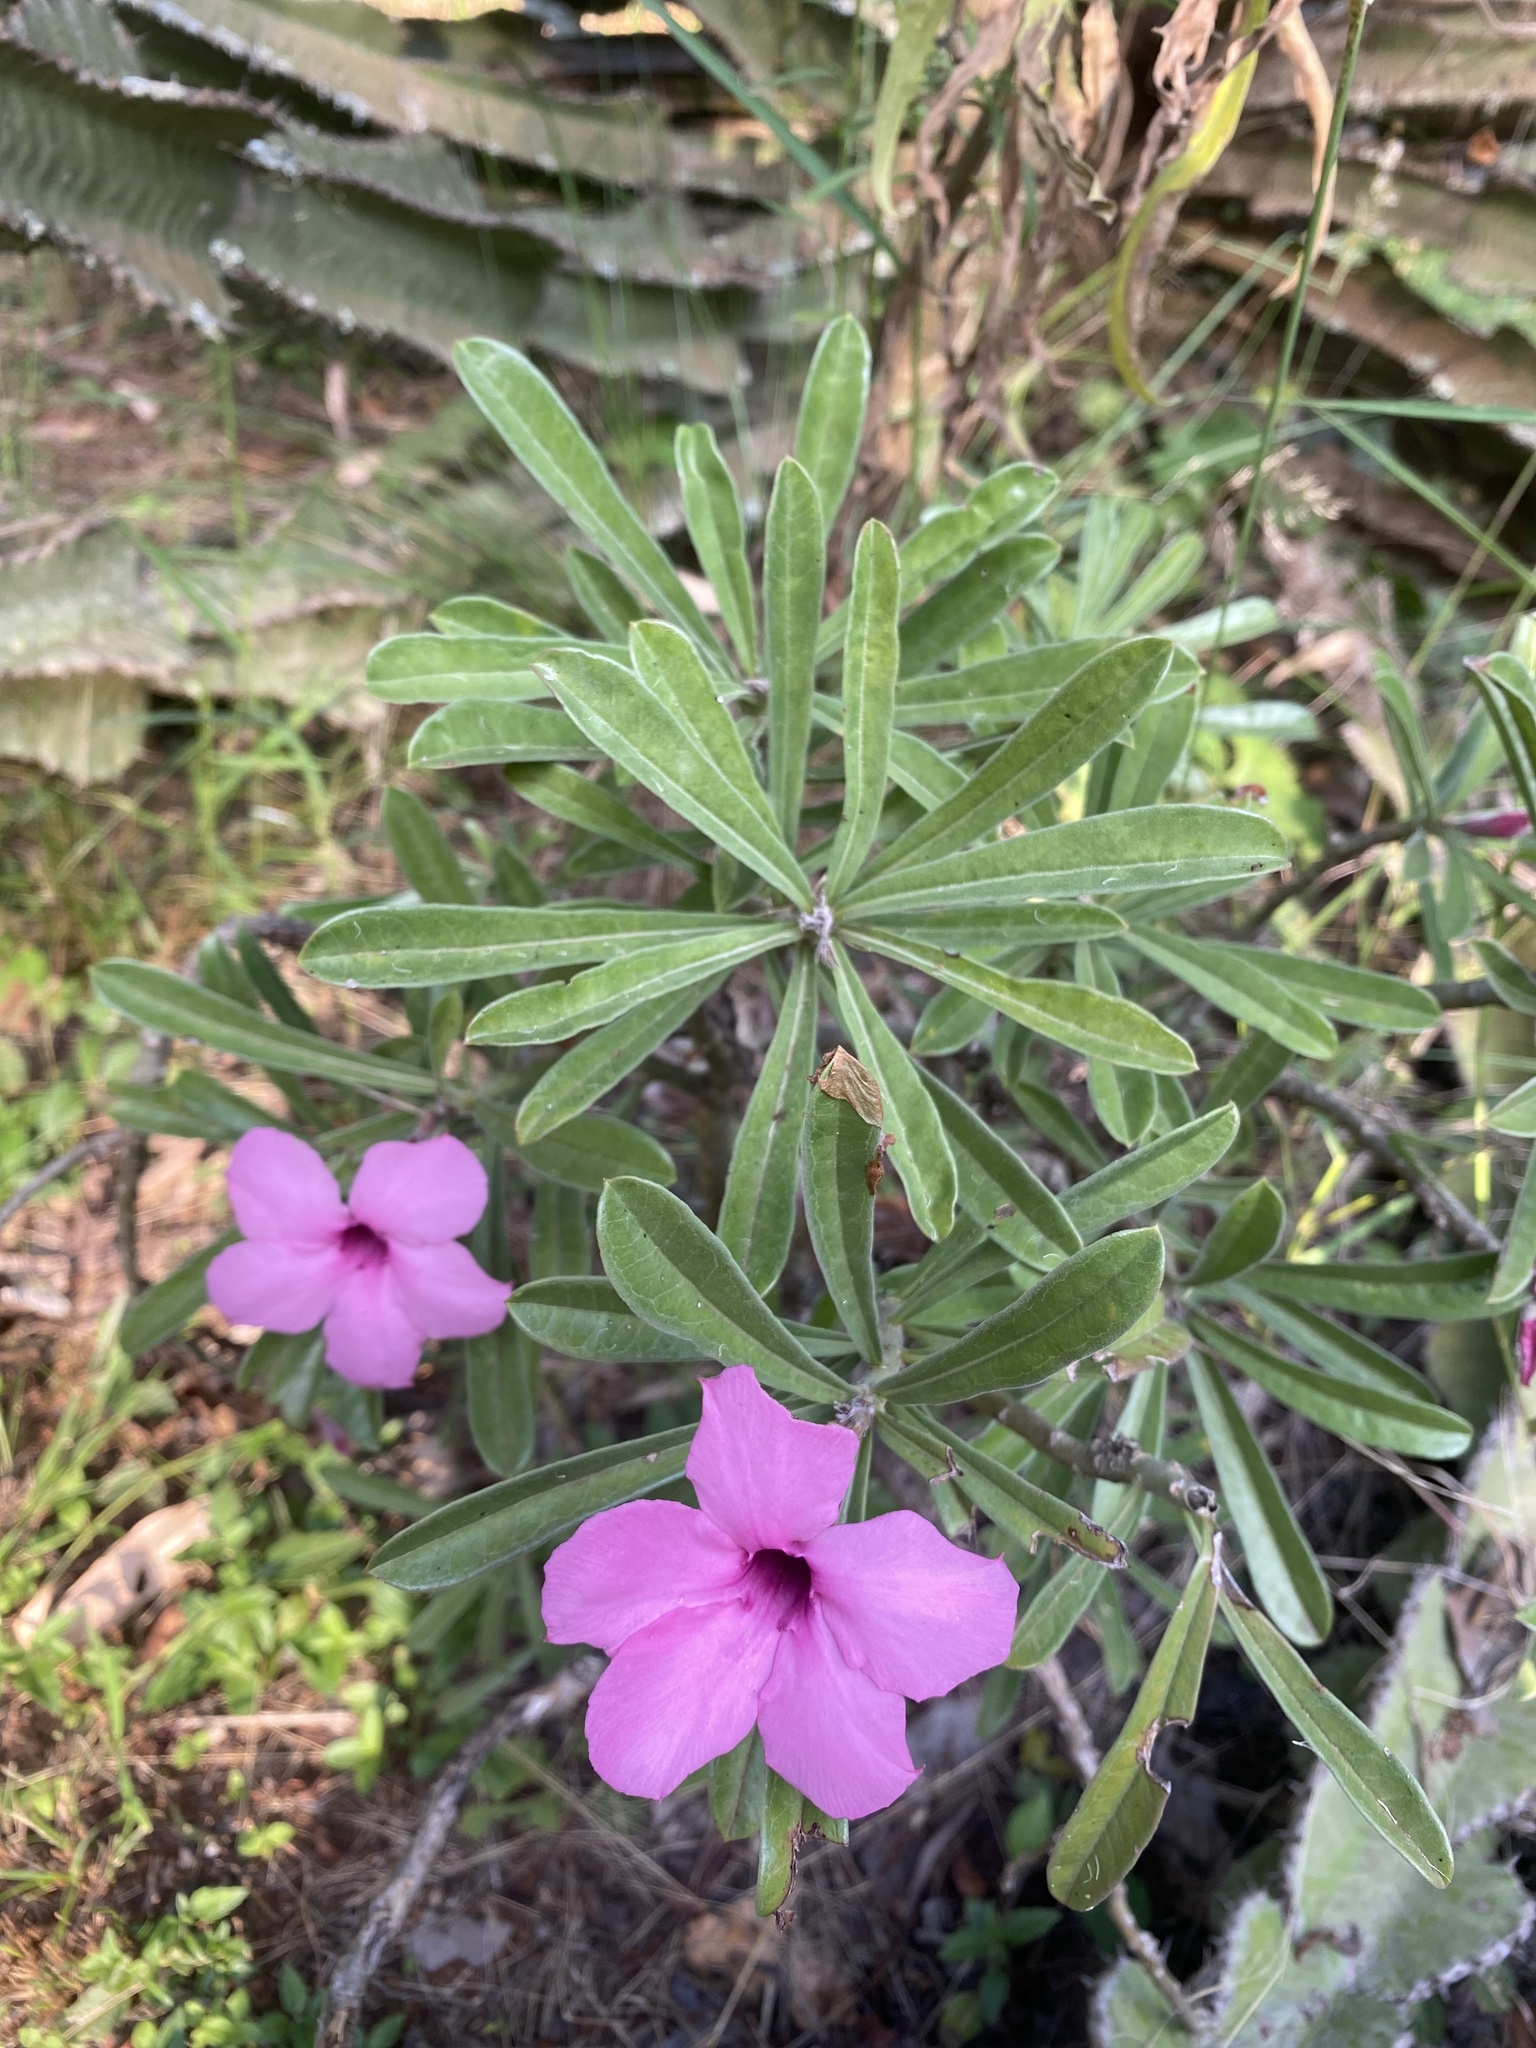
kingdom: Plantae
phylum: Tracheophyta
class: Magnoliopsida
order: Gentianales
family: Apocynaceae
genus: Adenium
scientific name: Adenium obesum
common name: Desert-rose
